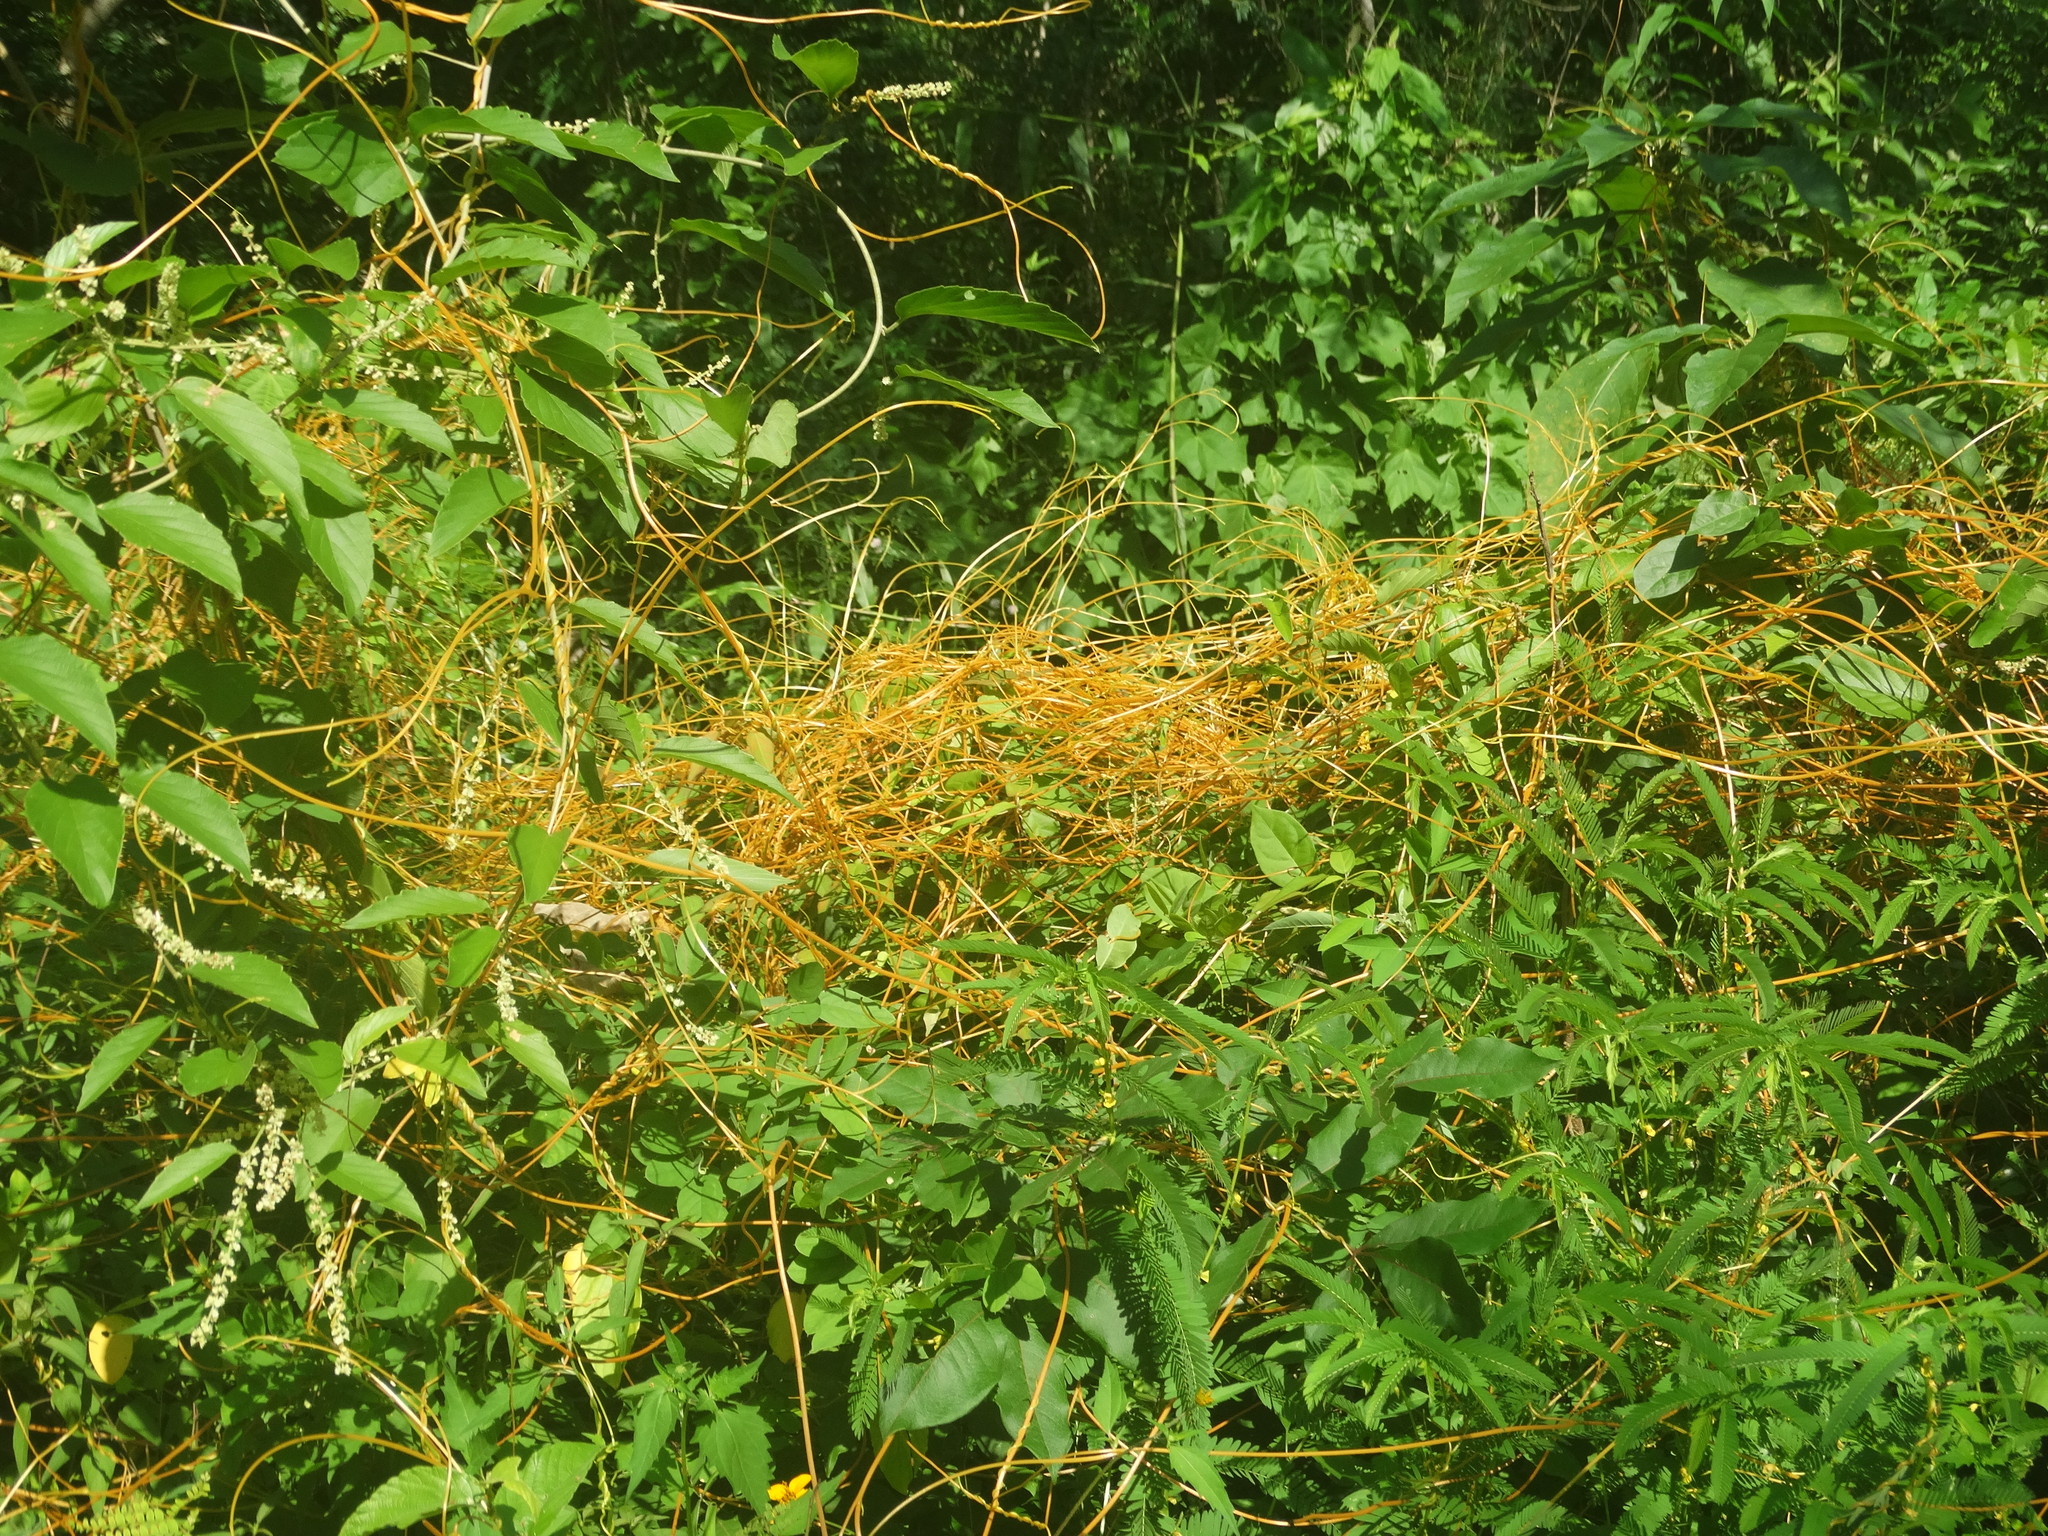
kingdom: Plantae
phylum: Tracheophyta
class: Magnoliopsida
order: Solanales
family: Convolvulaceae
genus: Cuscuta
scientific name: Cuscuta
